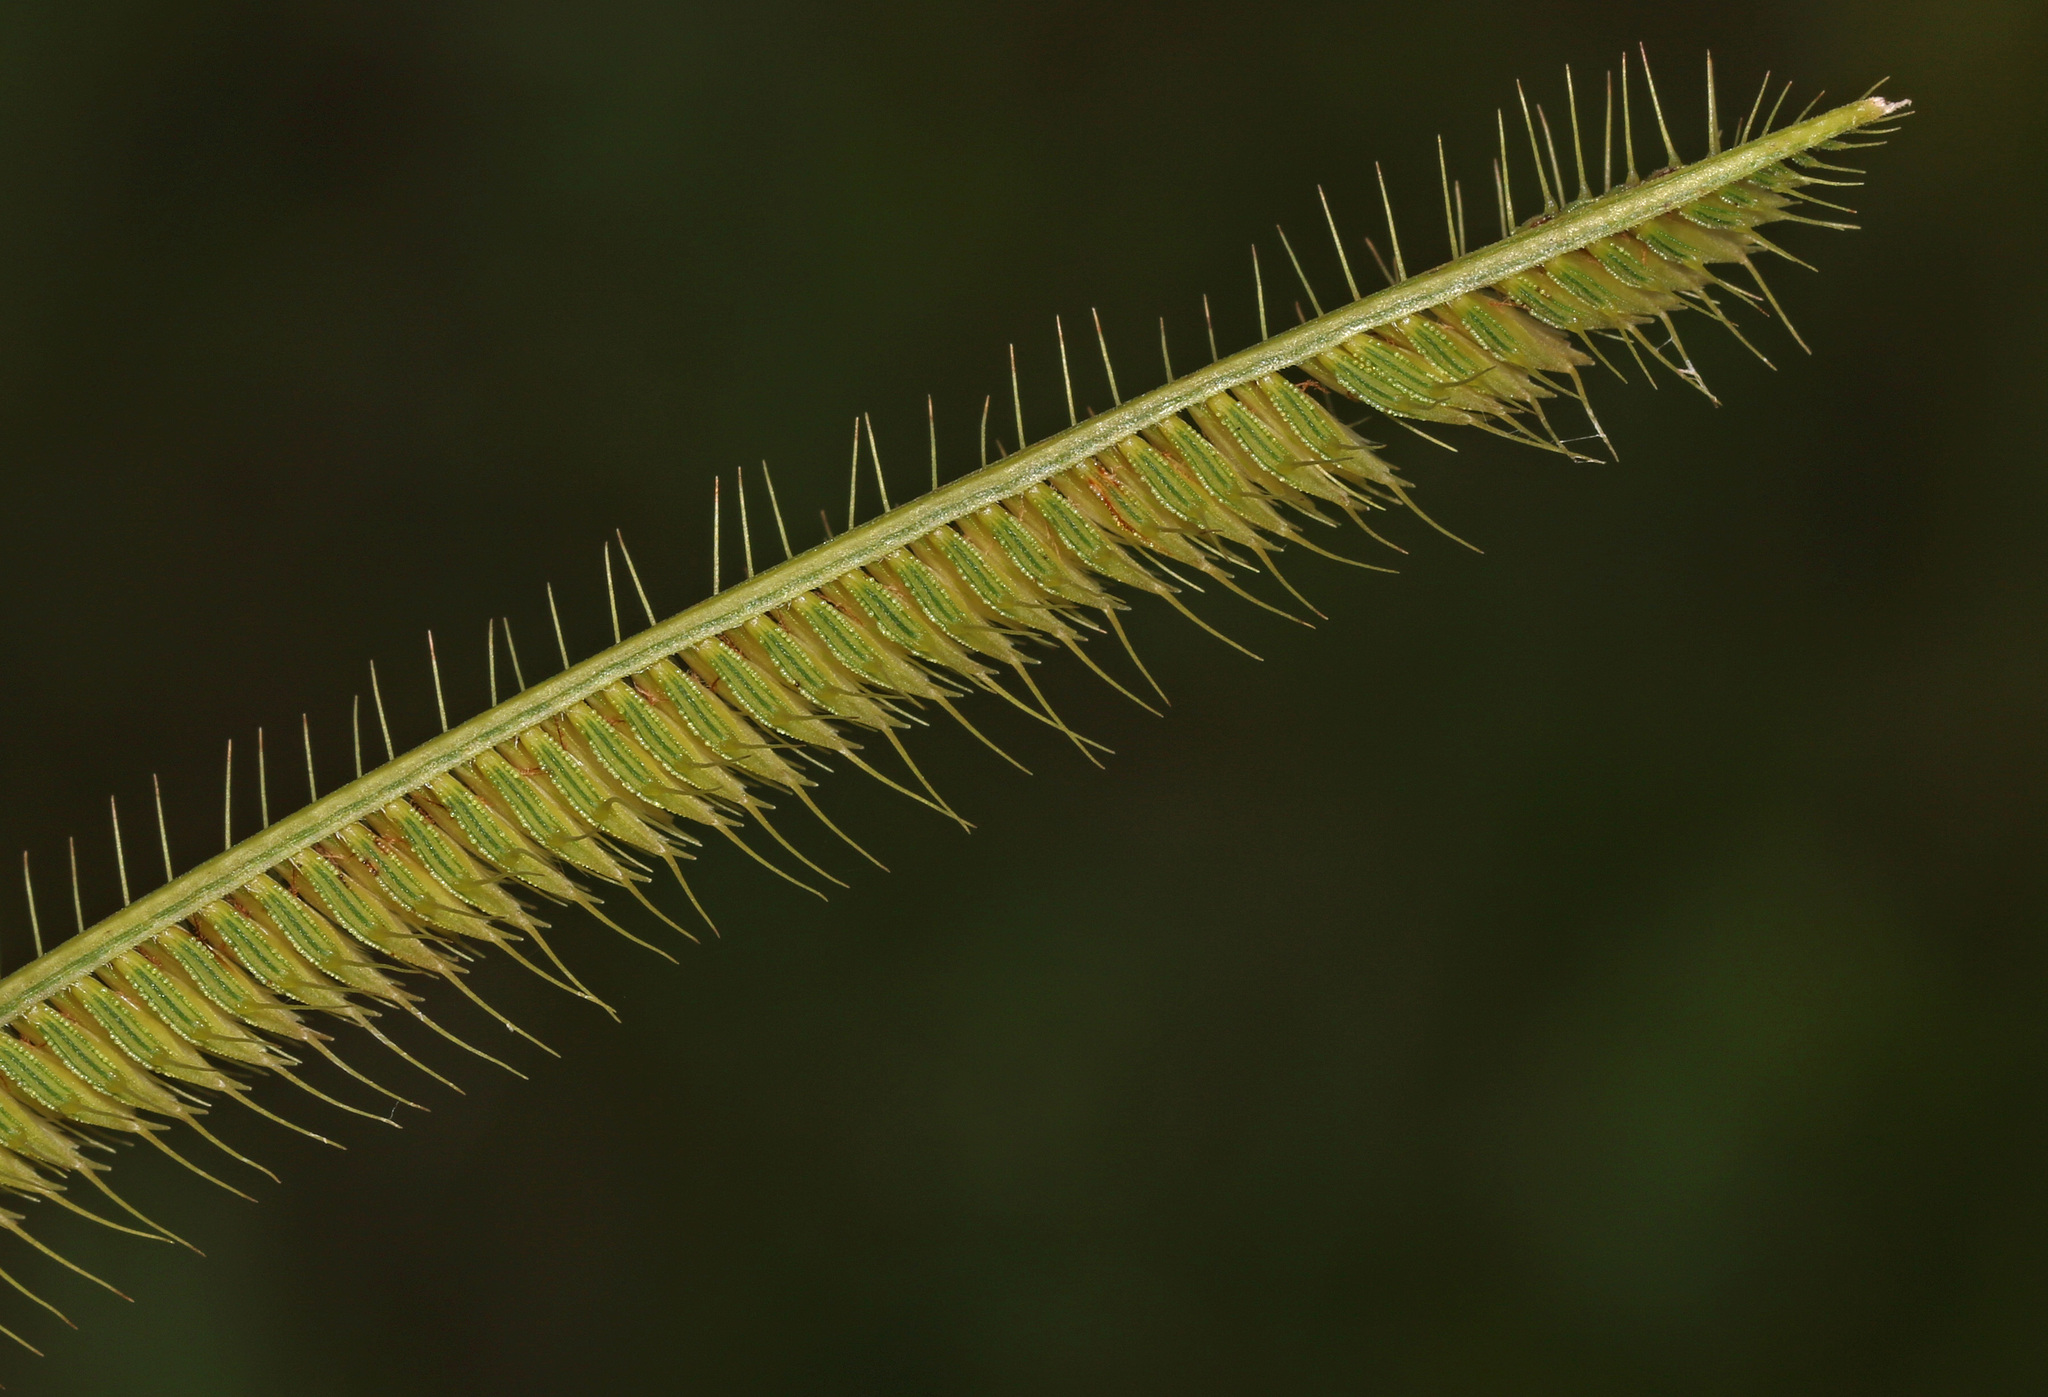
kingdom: Plantae
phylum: Tracheophyta
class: Liliopsida
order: Poales
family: Poaceae
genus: Ctenium
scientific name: Ctenium aromaticum
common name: Toothache grass
